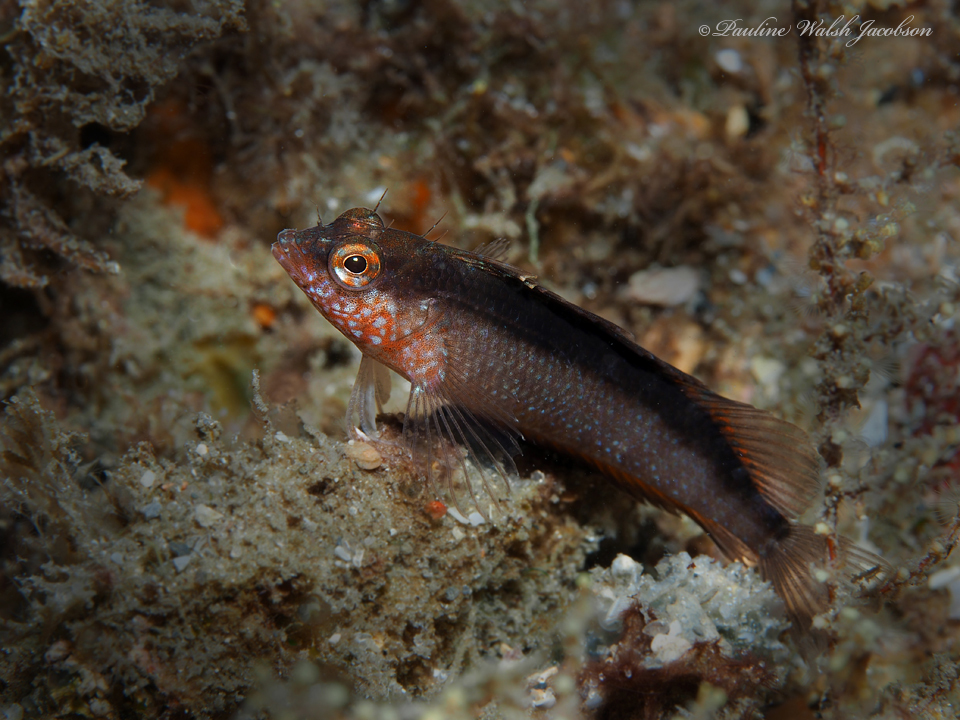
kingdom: Animalia
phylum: Chordata
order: Perciformes
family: Labrisomidae
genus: Malacoctenus
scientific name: Malacoctenus macropus
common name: Rosy blenny
